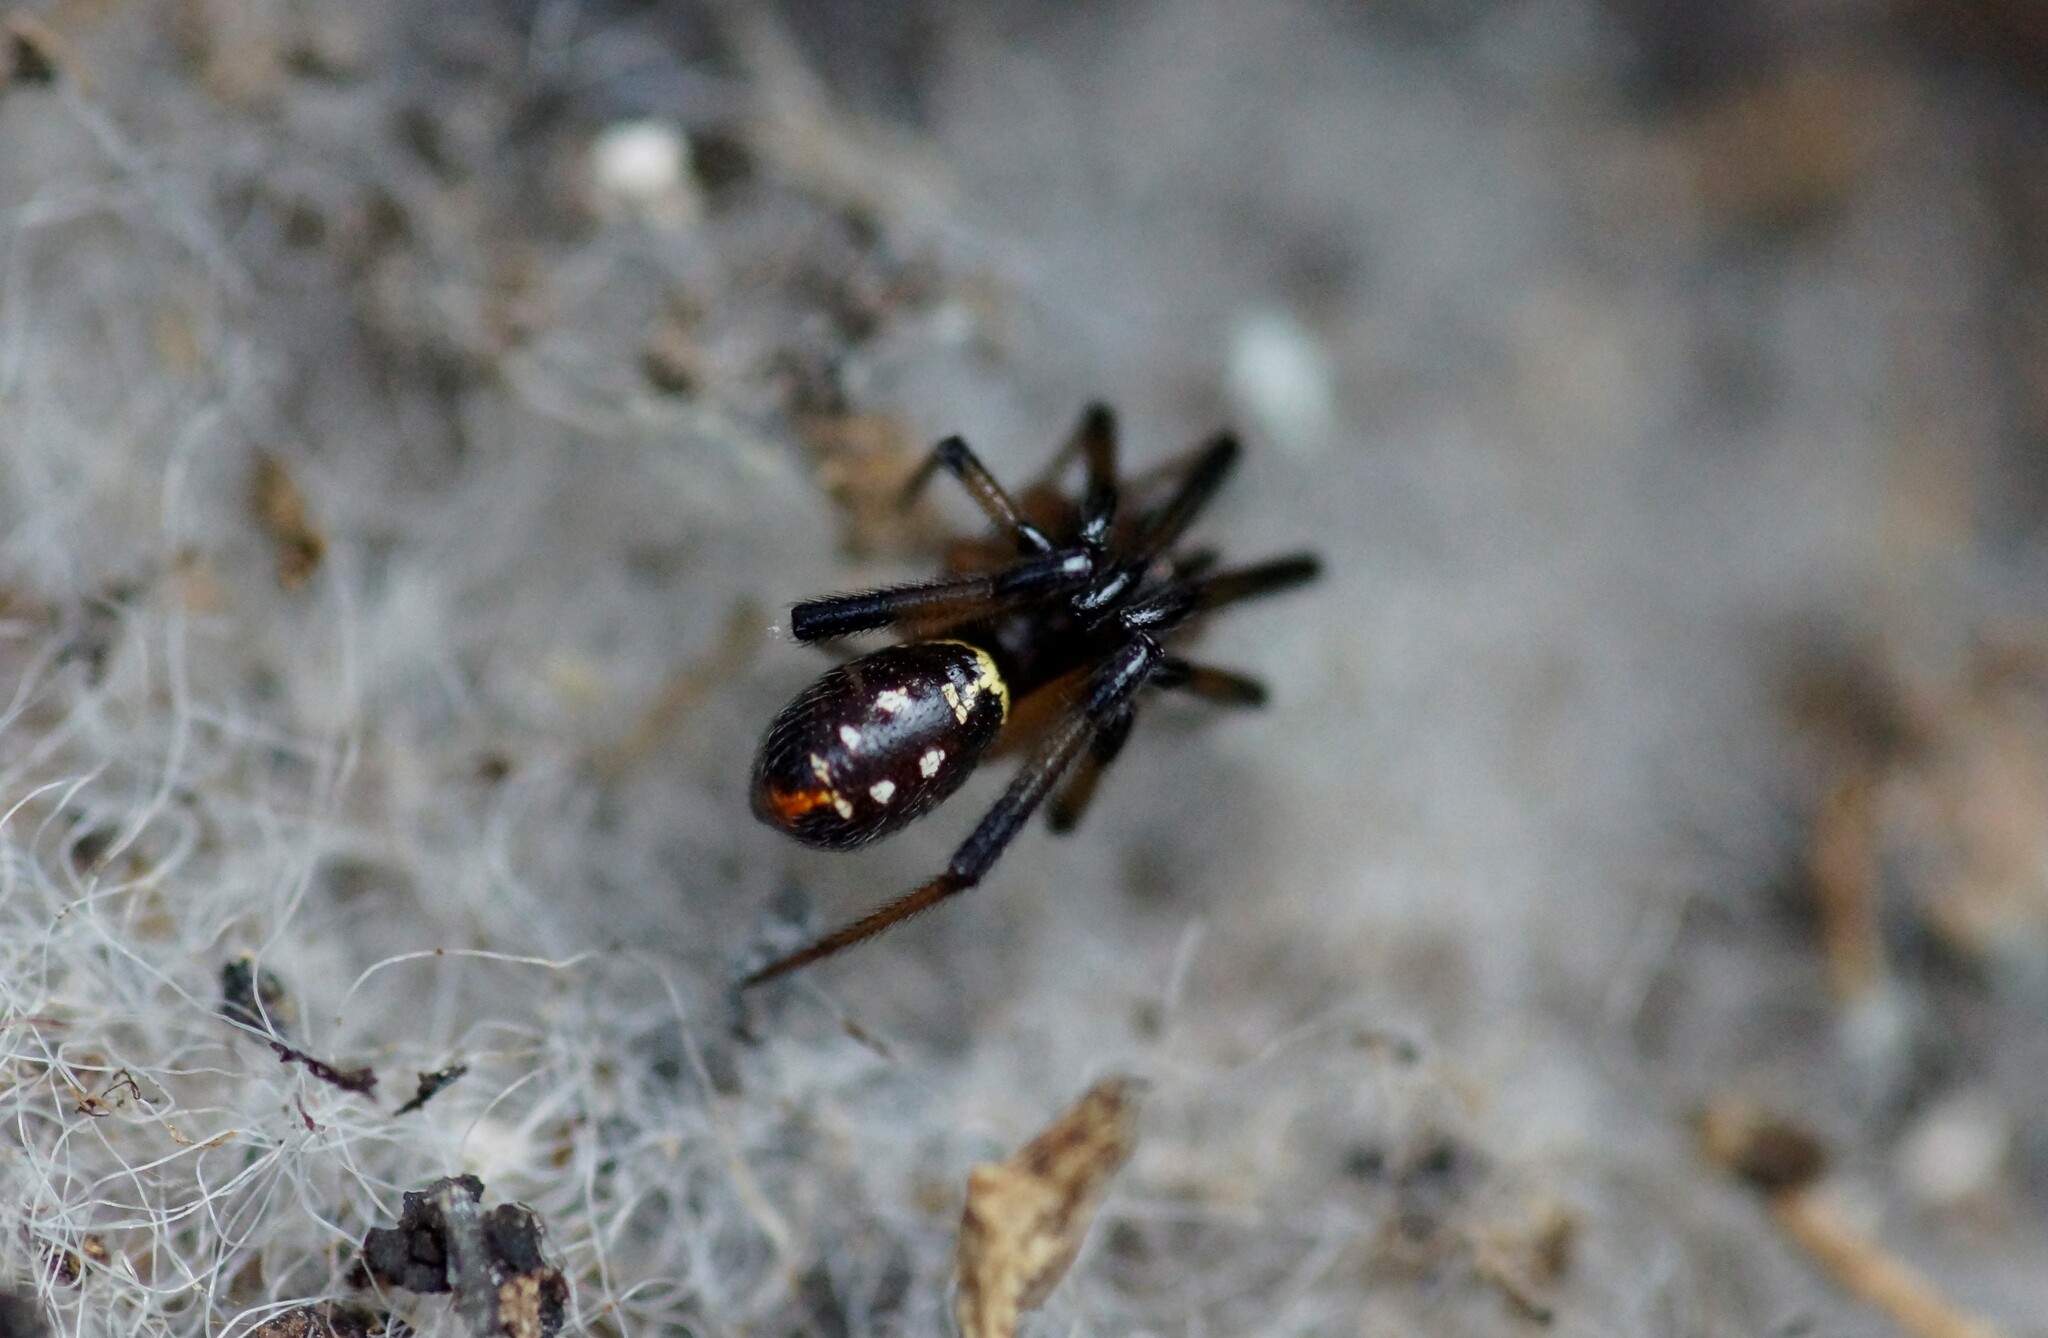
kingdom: Animalia
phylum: Arthropoda
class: Arachnida
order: Araneae
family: Theridiidae
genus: Steatoda
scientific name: Steatoda capensis
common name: Cobweb weaver
